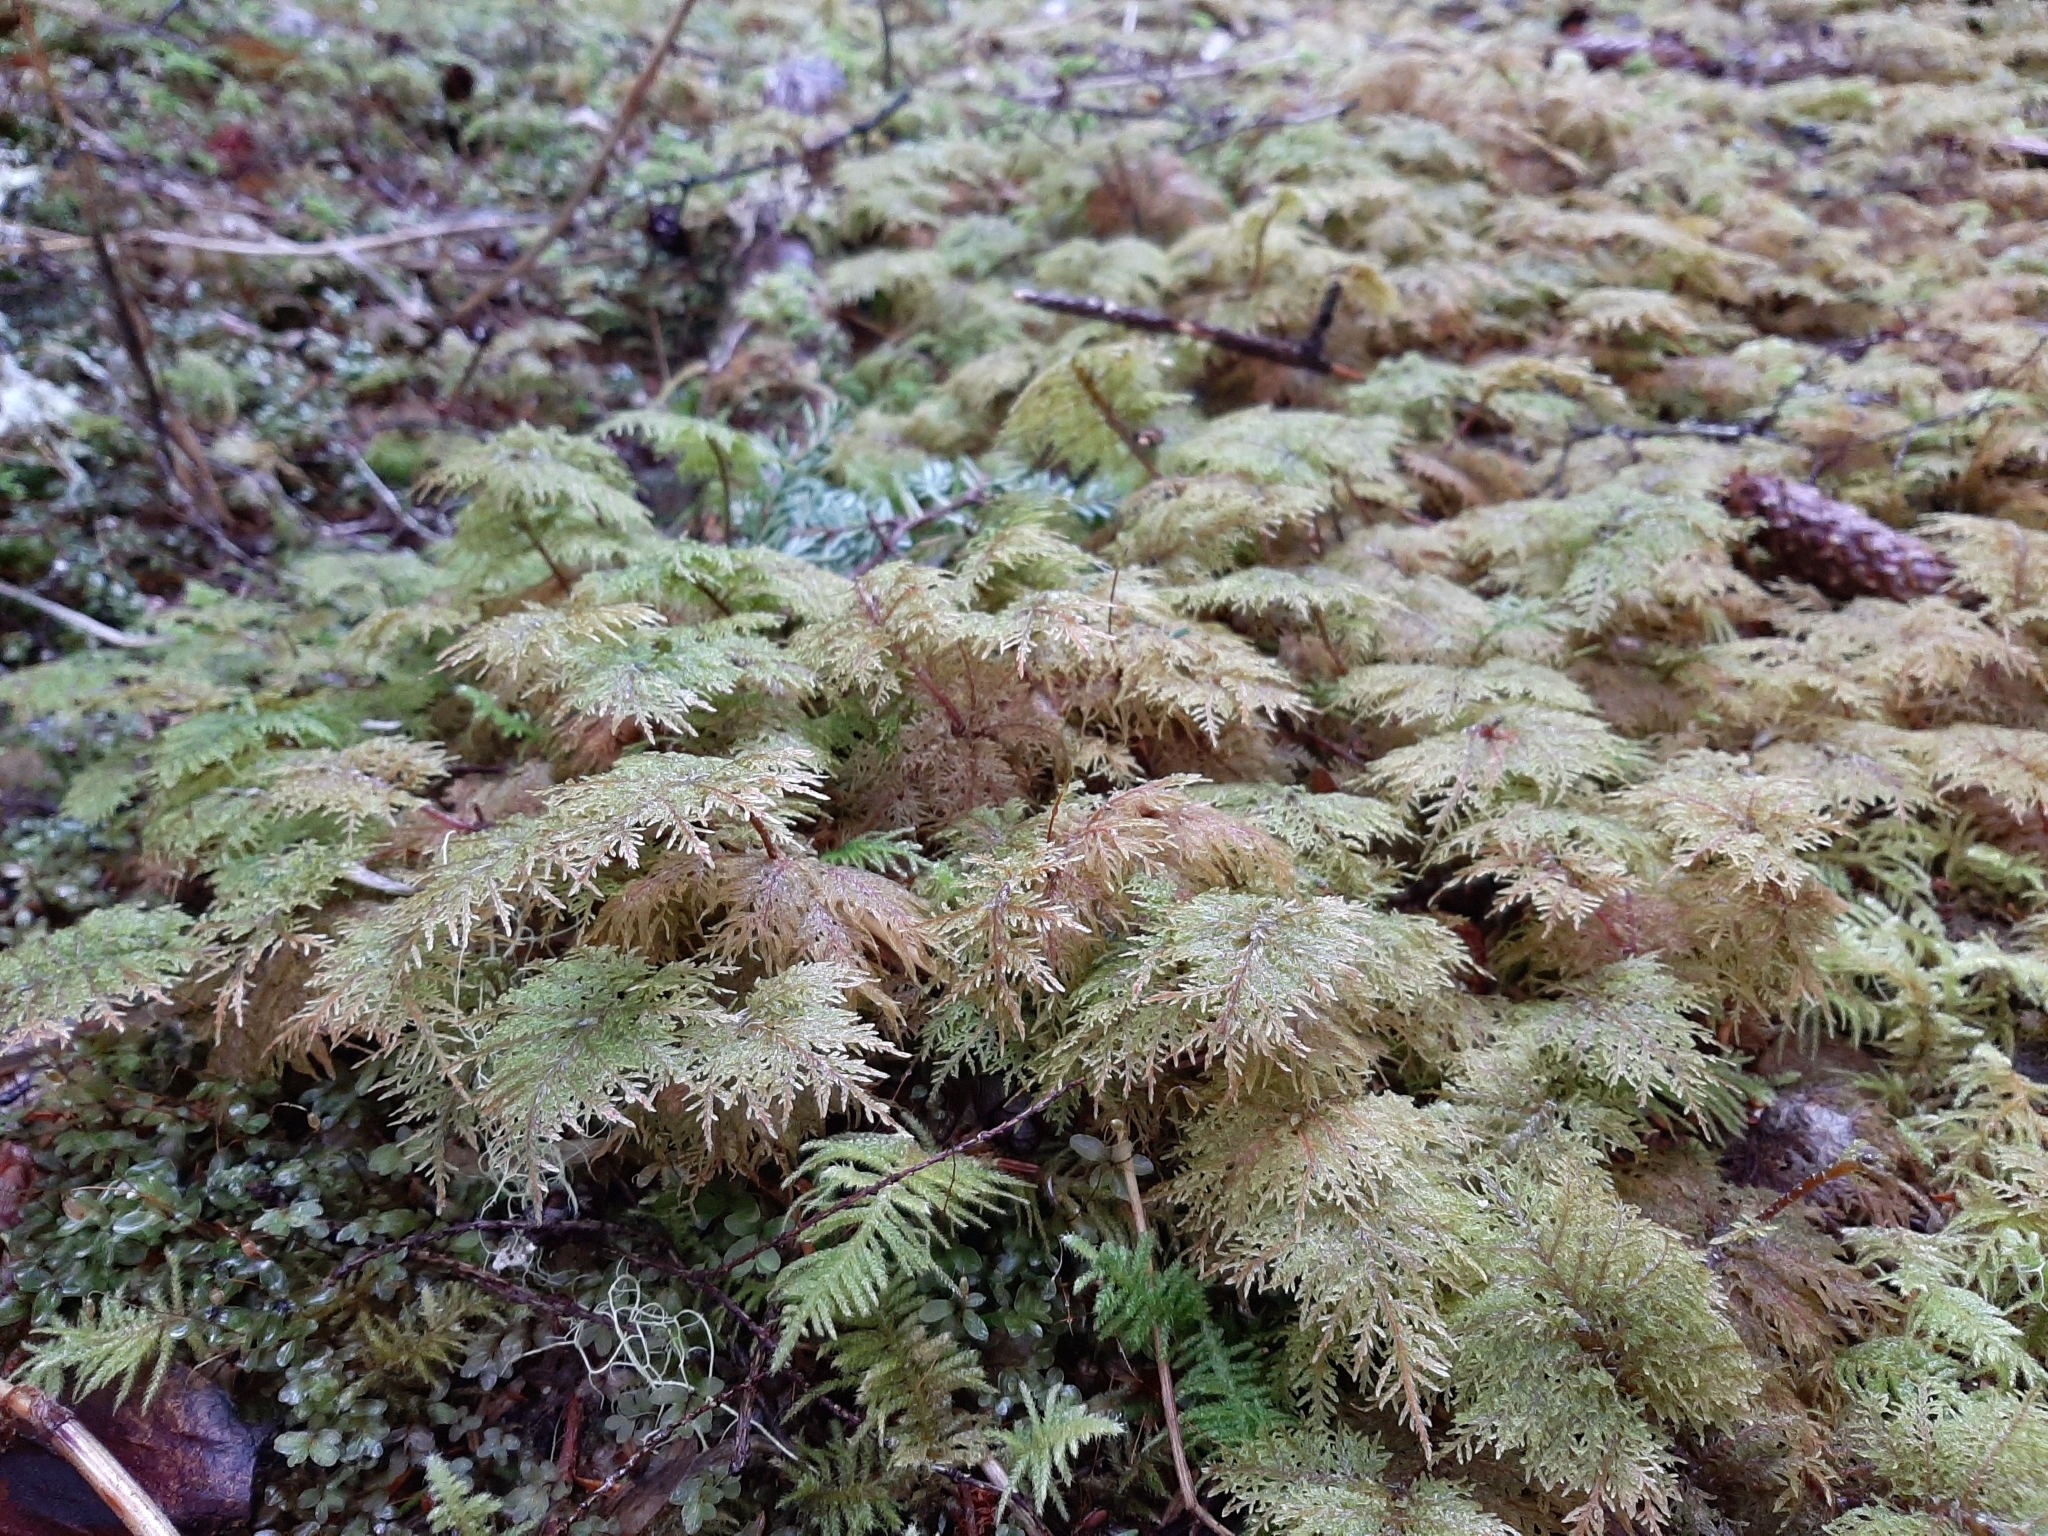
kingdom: Plantae
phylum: Bryophyta
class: Bryopsida
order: Hypnales
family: Hylocomiaceae
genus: Hylocomium
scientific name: Hylocomium splendens
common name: Stairstep moss
